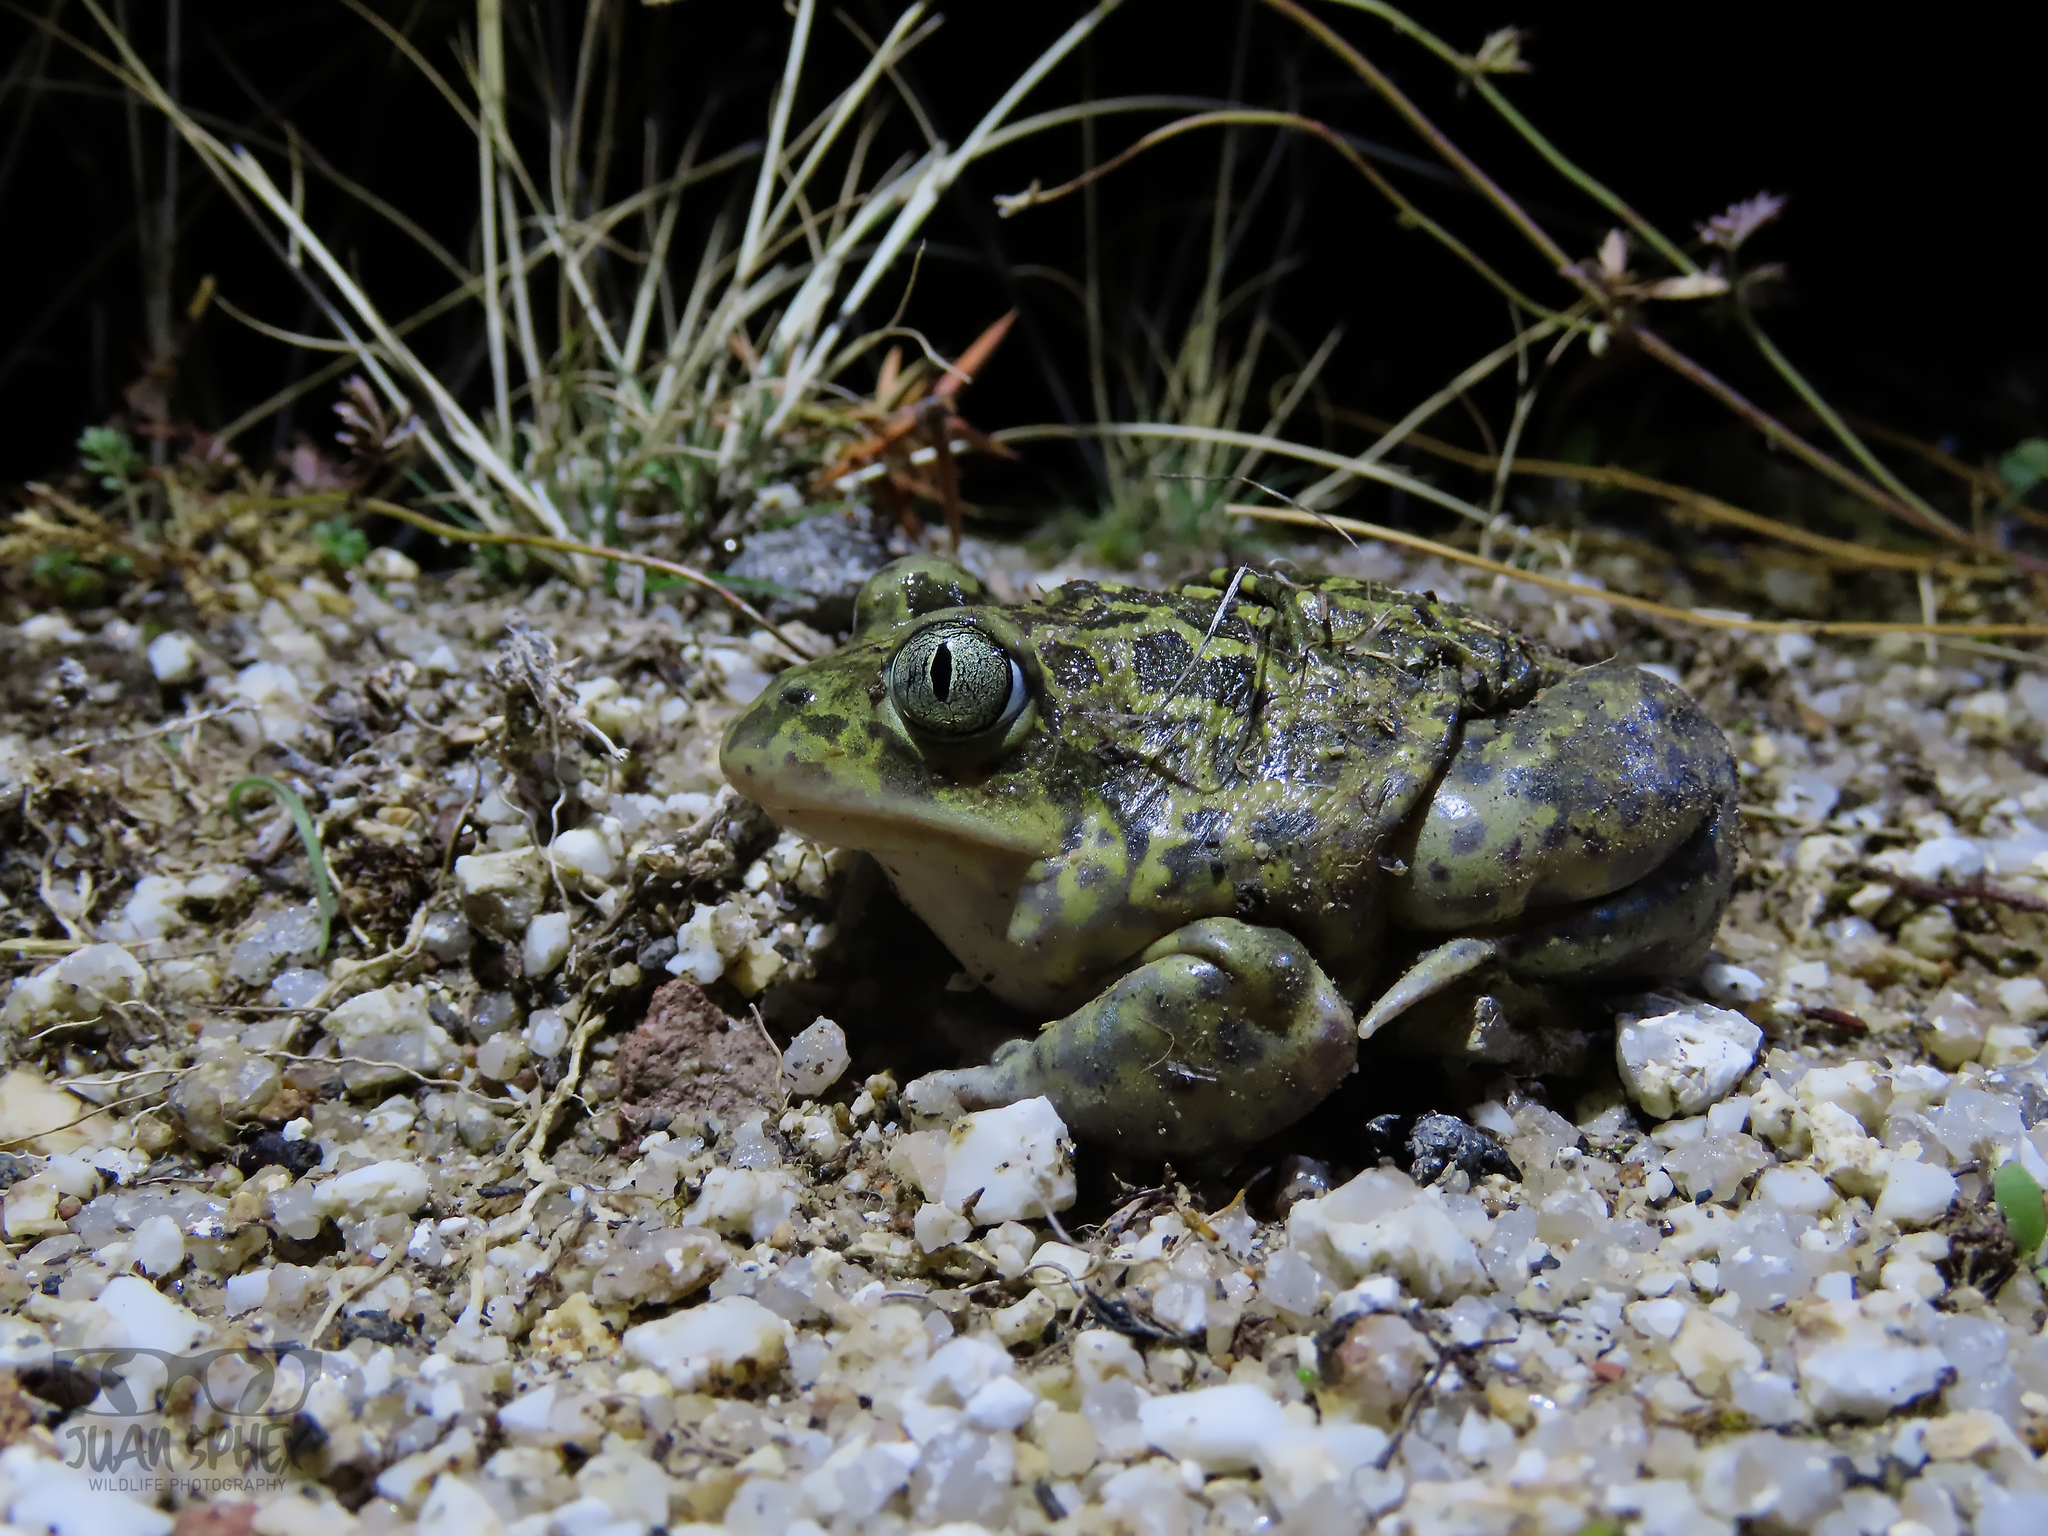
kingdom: Animalia
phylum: Chordata
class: Amphibia
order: Anura
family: Pelobatidae
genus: Pelobates
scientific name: Pelobates cultripes
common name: Western spadefoot
